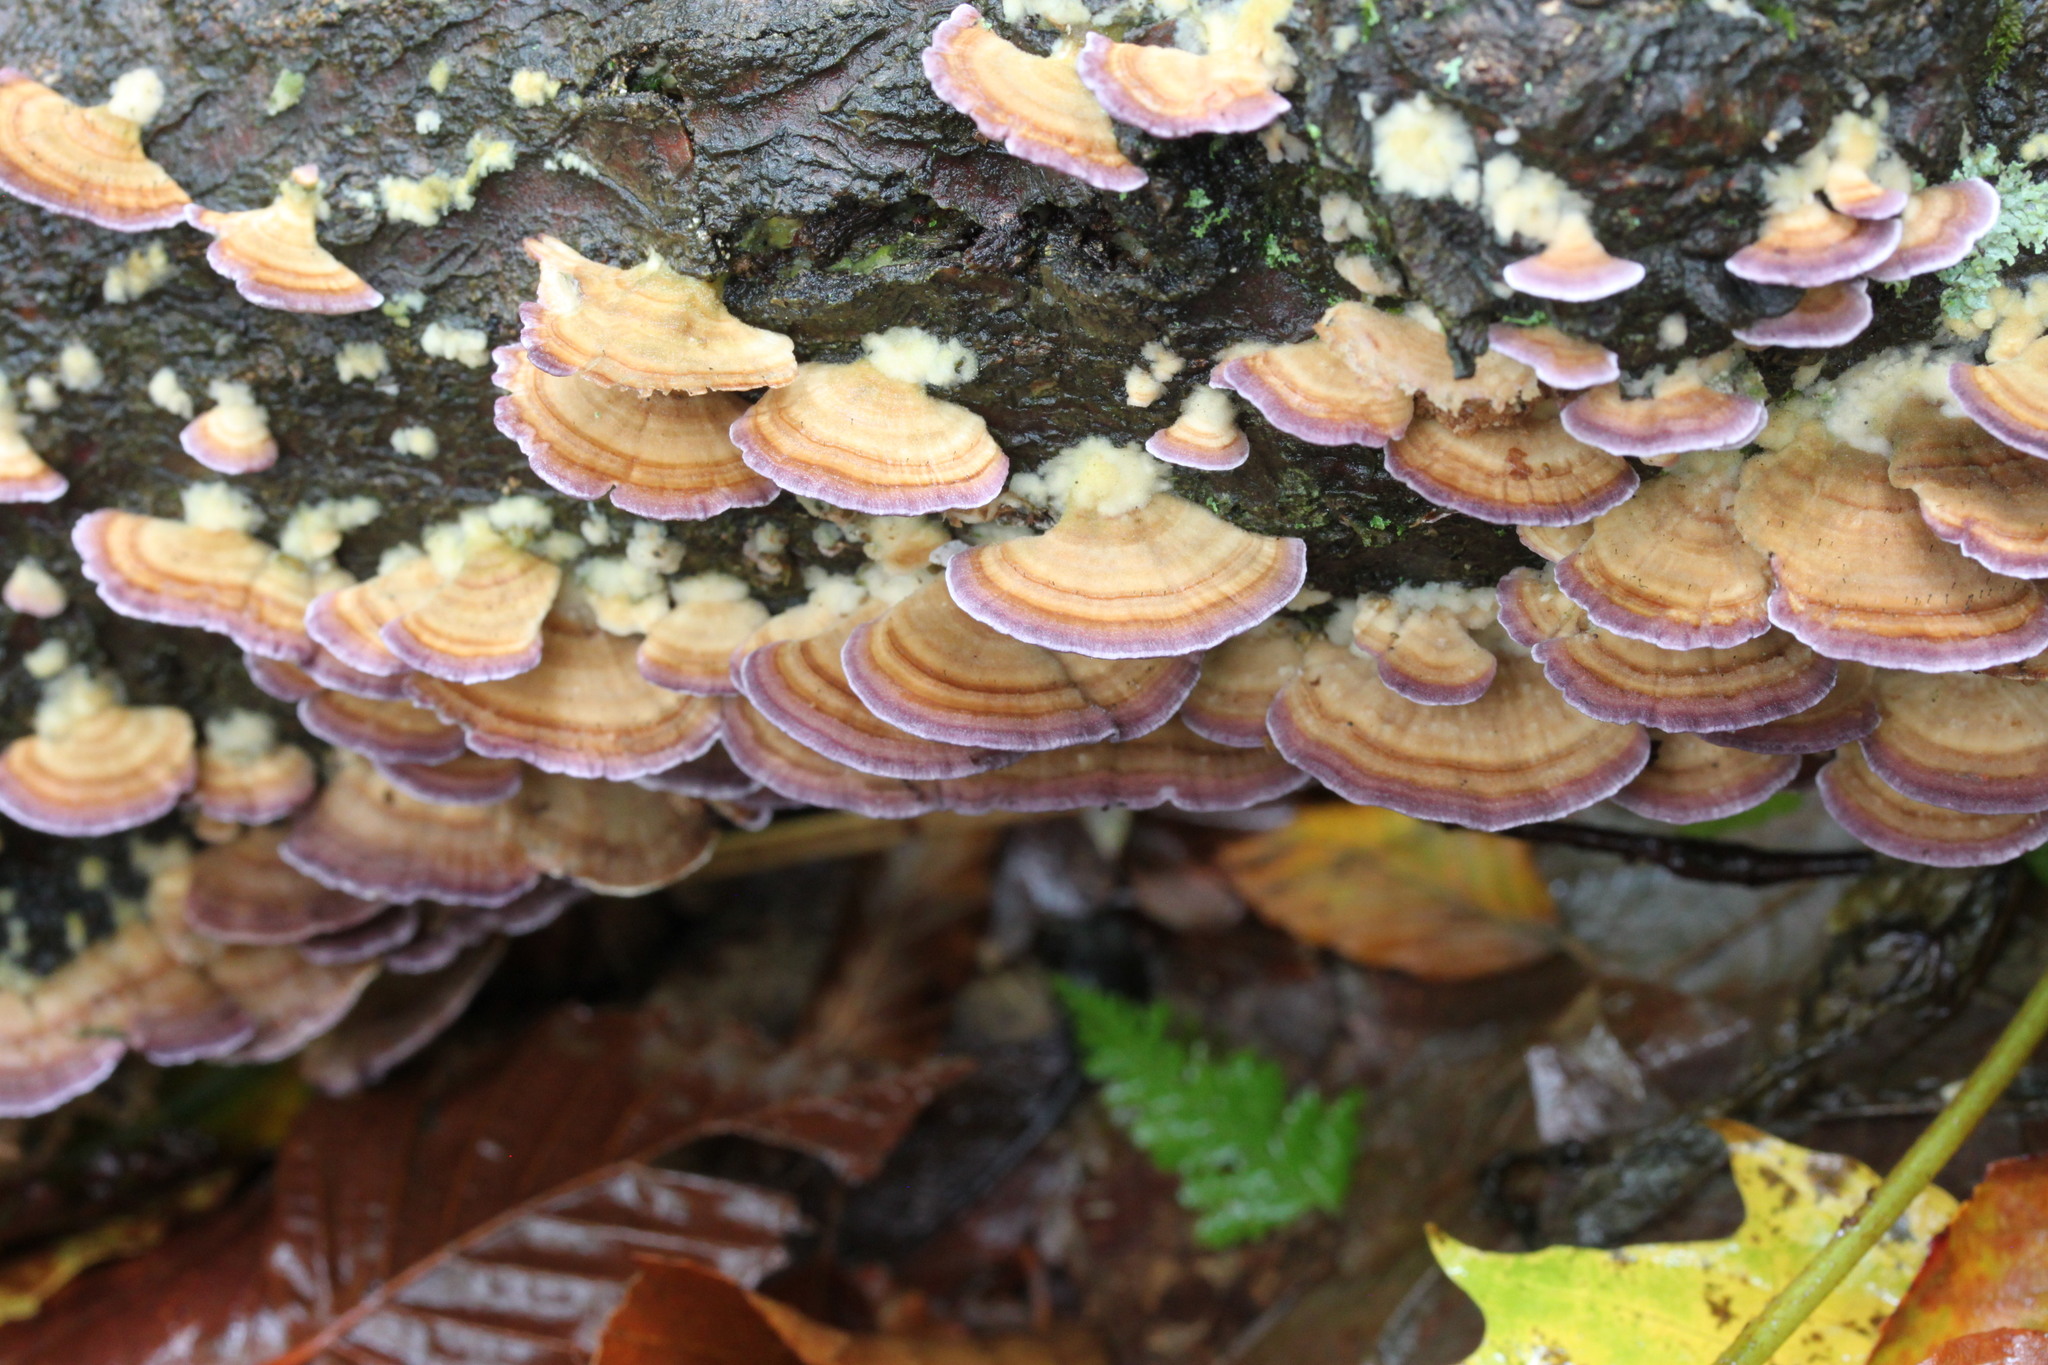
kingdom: Fungi
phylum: Basidiomycota
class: Agaricomycetes
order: Hymenochaetales
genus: Trichaptum
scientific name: Trichaptum biforme
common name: Violet-toothed polypore
